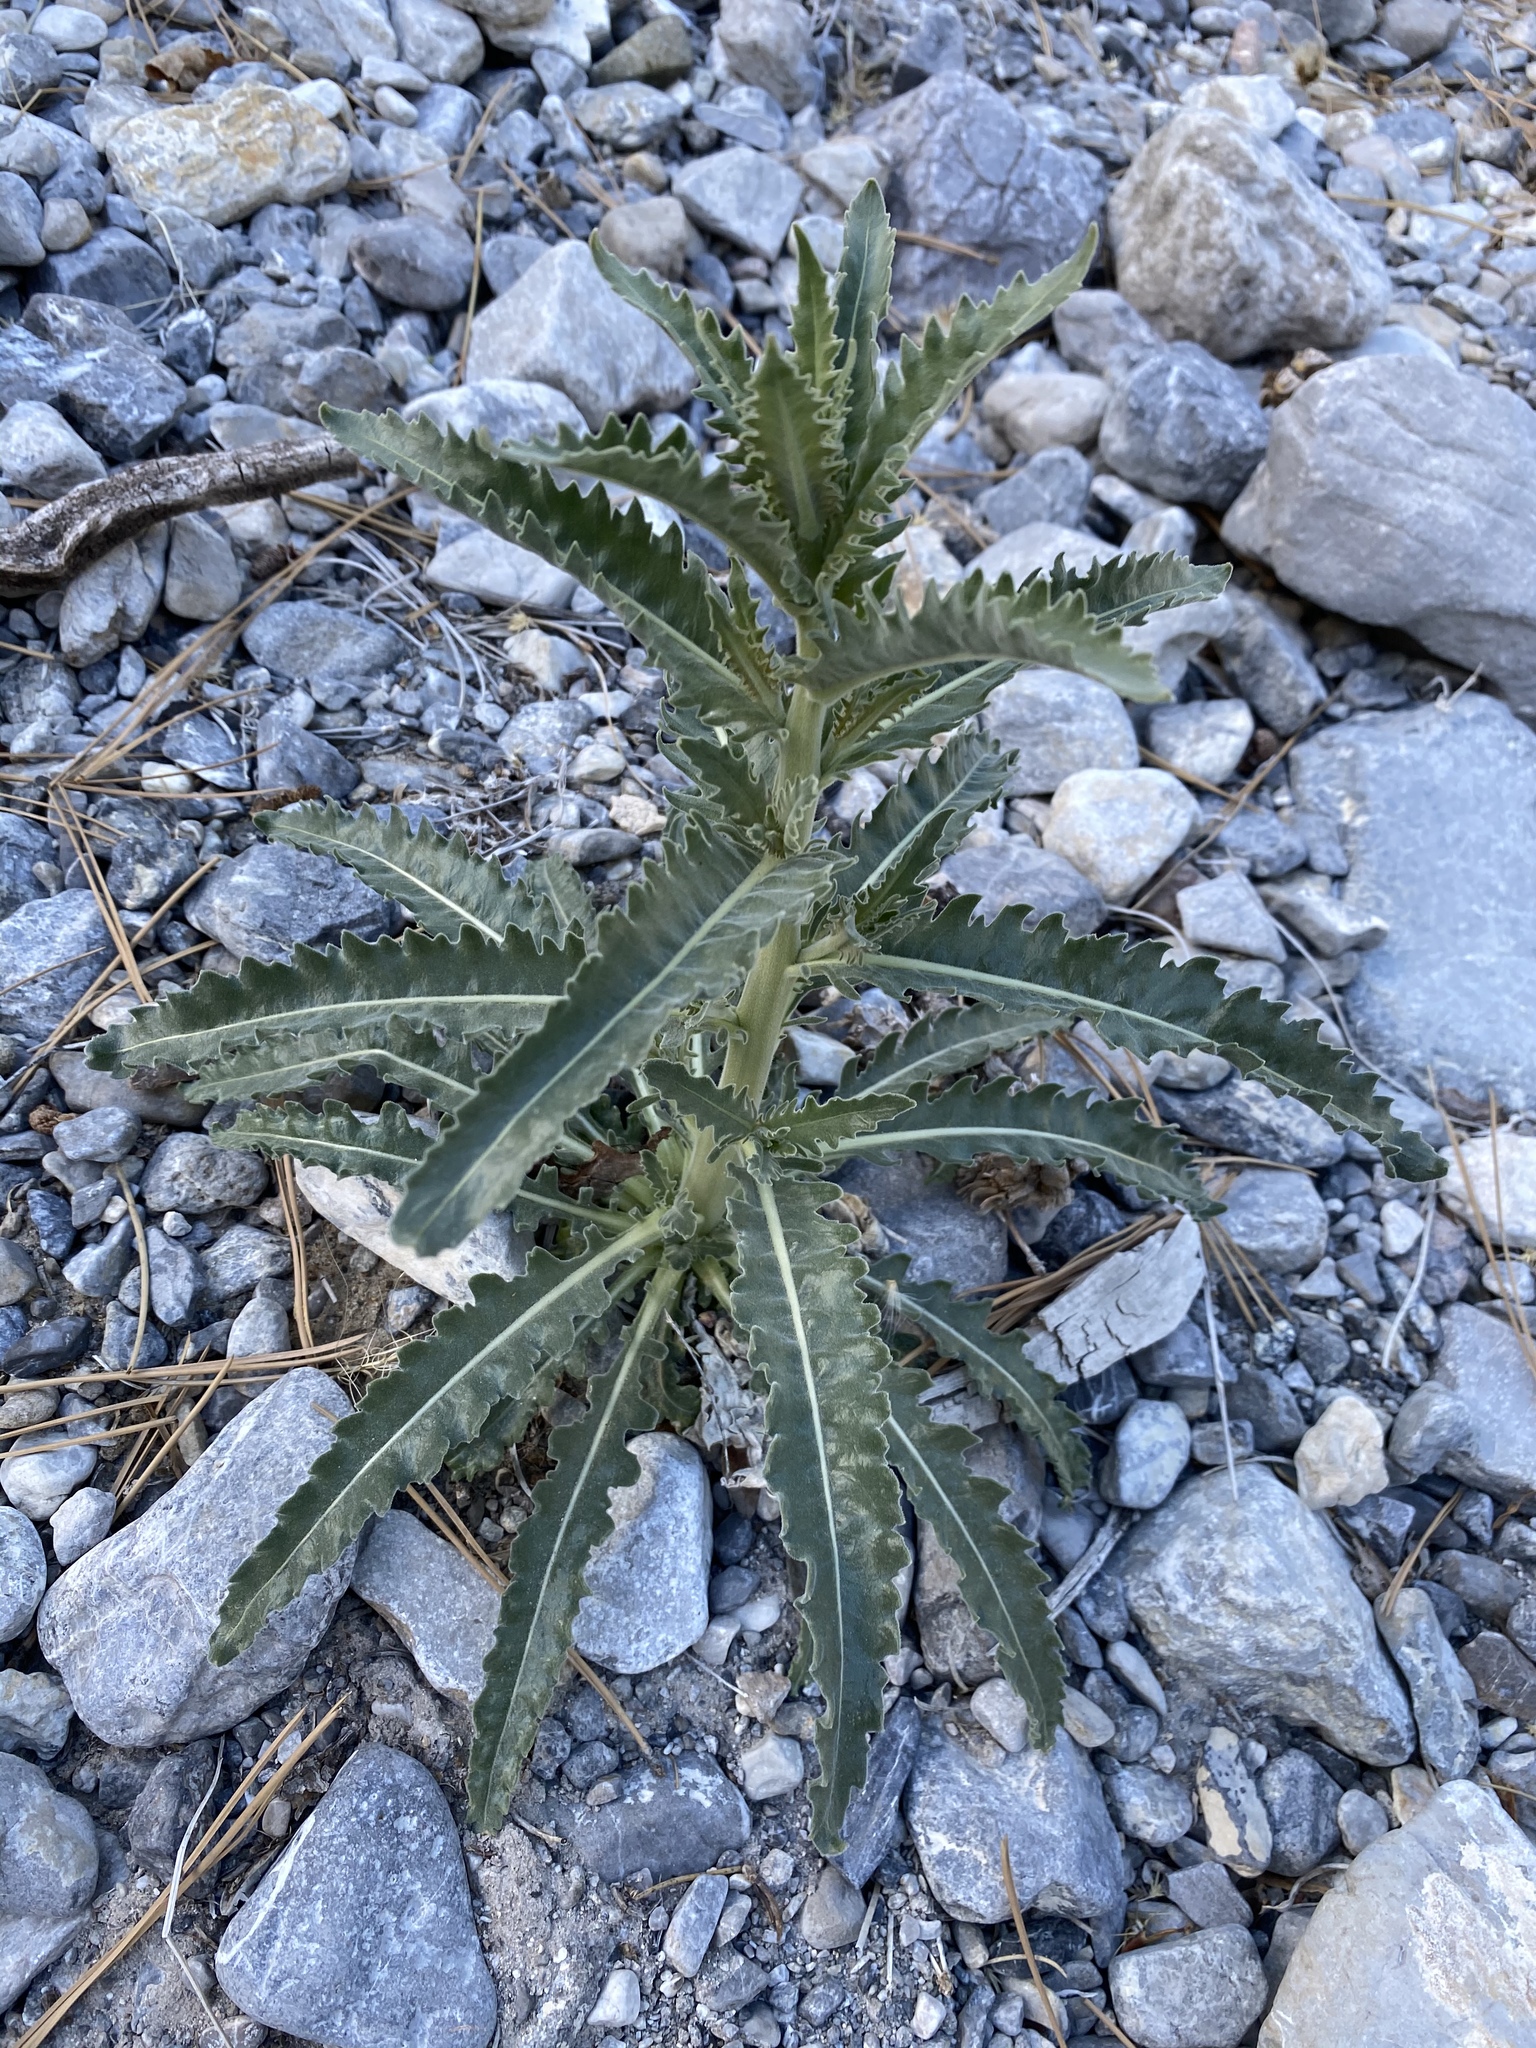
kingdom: Plantae
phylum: Tracheophyta
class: Magnoliopsida
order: Cornales
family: Loasaceae
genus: Mentzelia
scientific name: Mentzelia laevicaulis
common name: Smooth-stem blazingstar
